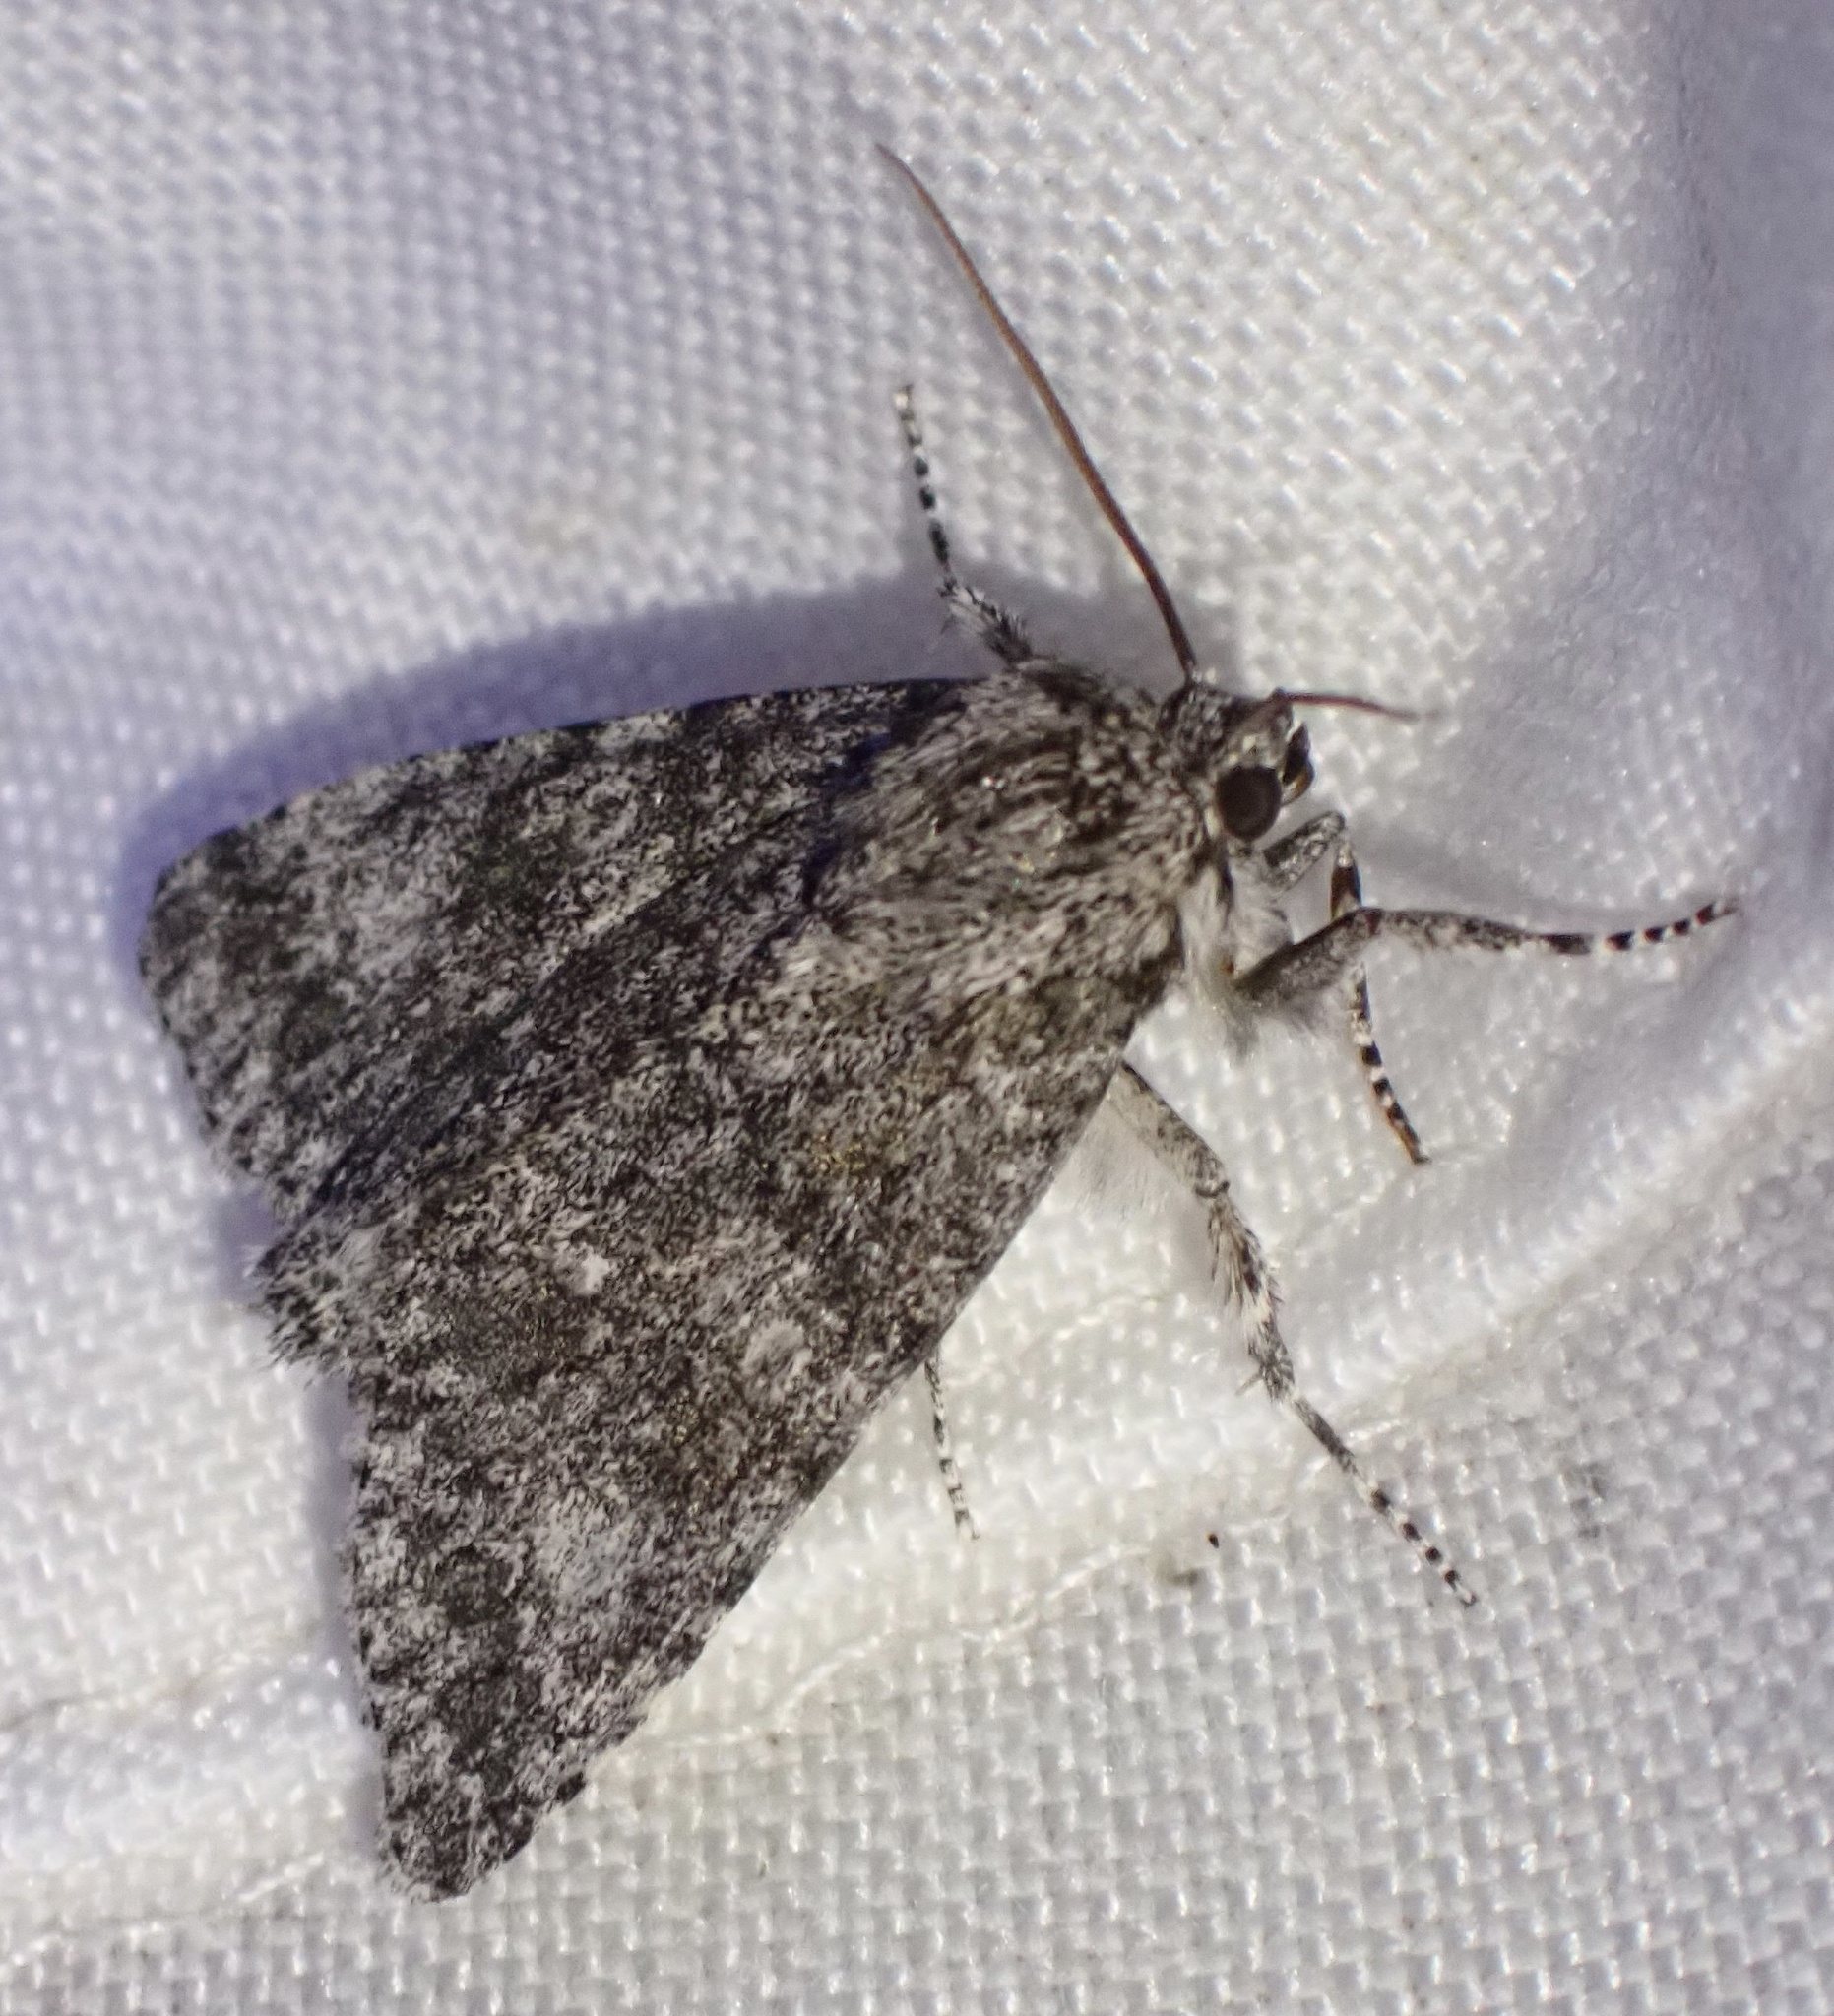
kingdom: Animalia
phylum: Arthropoda
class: Insecta
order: Lepidoptera
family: Noctuidae
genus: Acronicta
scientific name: Acronicta megacephala
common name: Poplar grey
